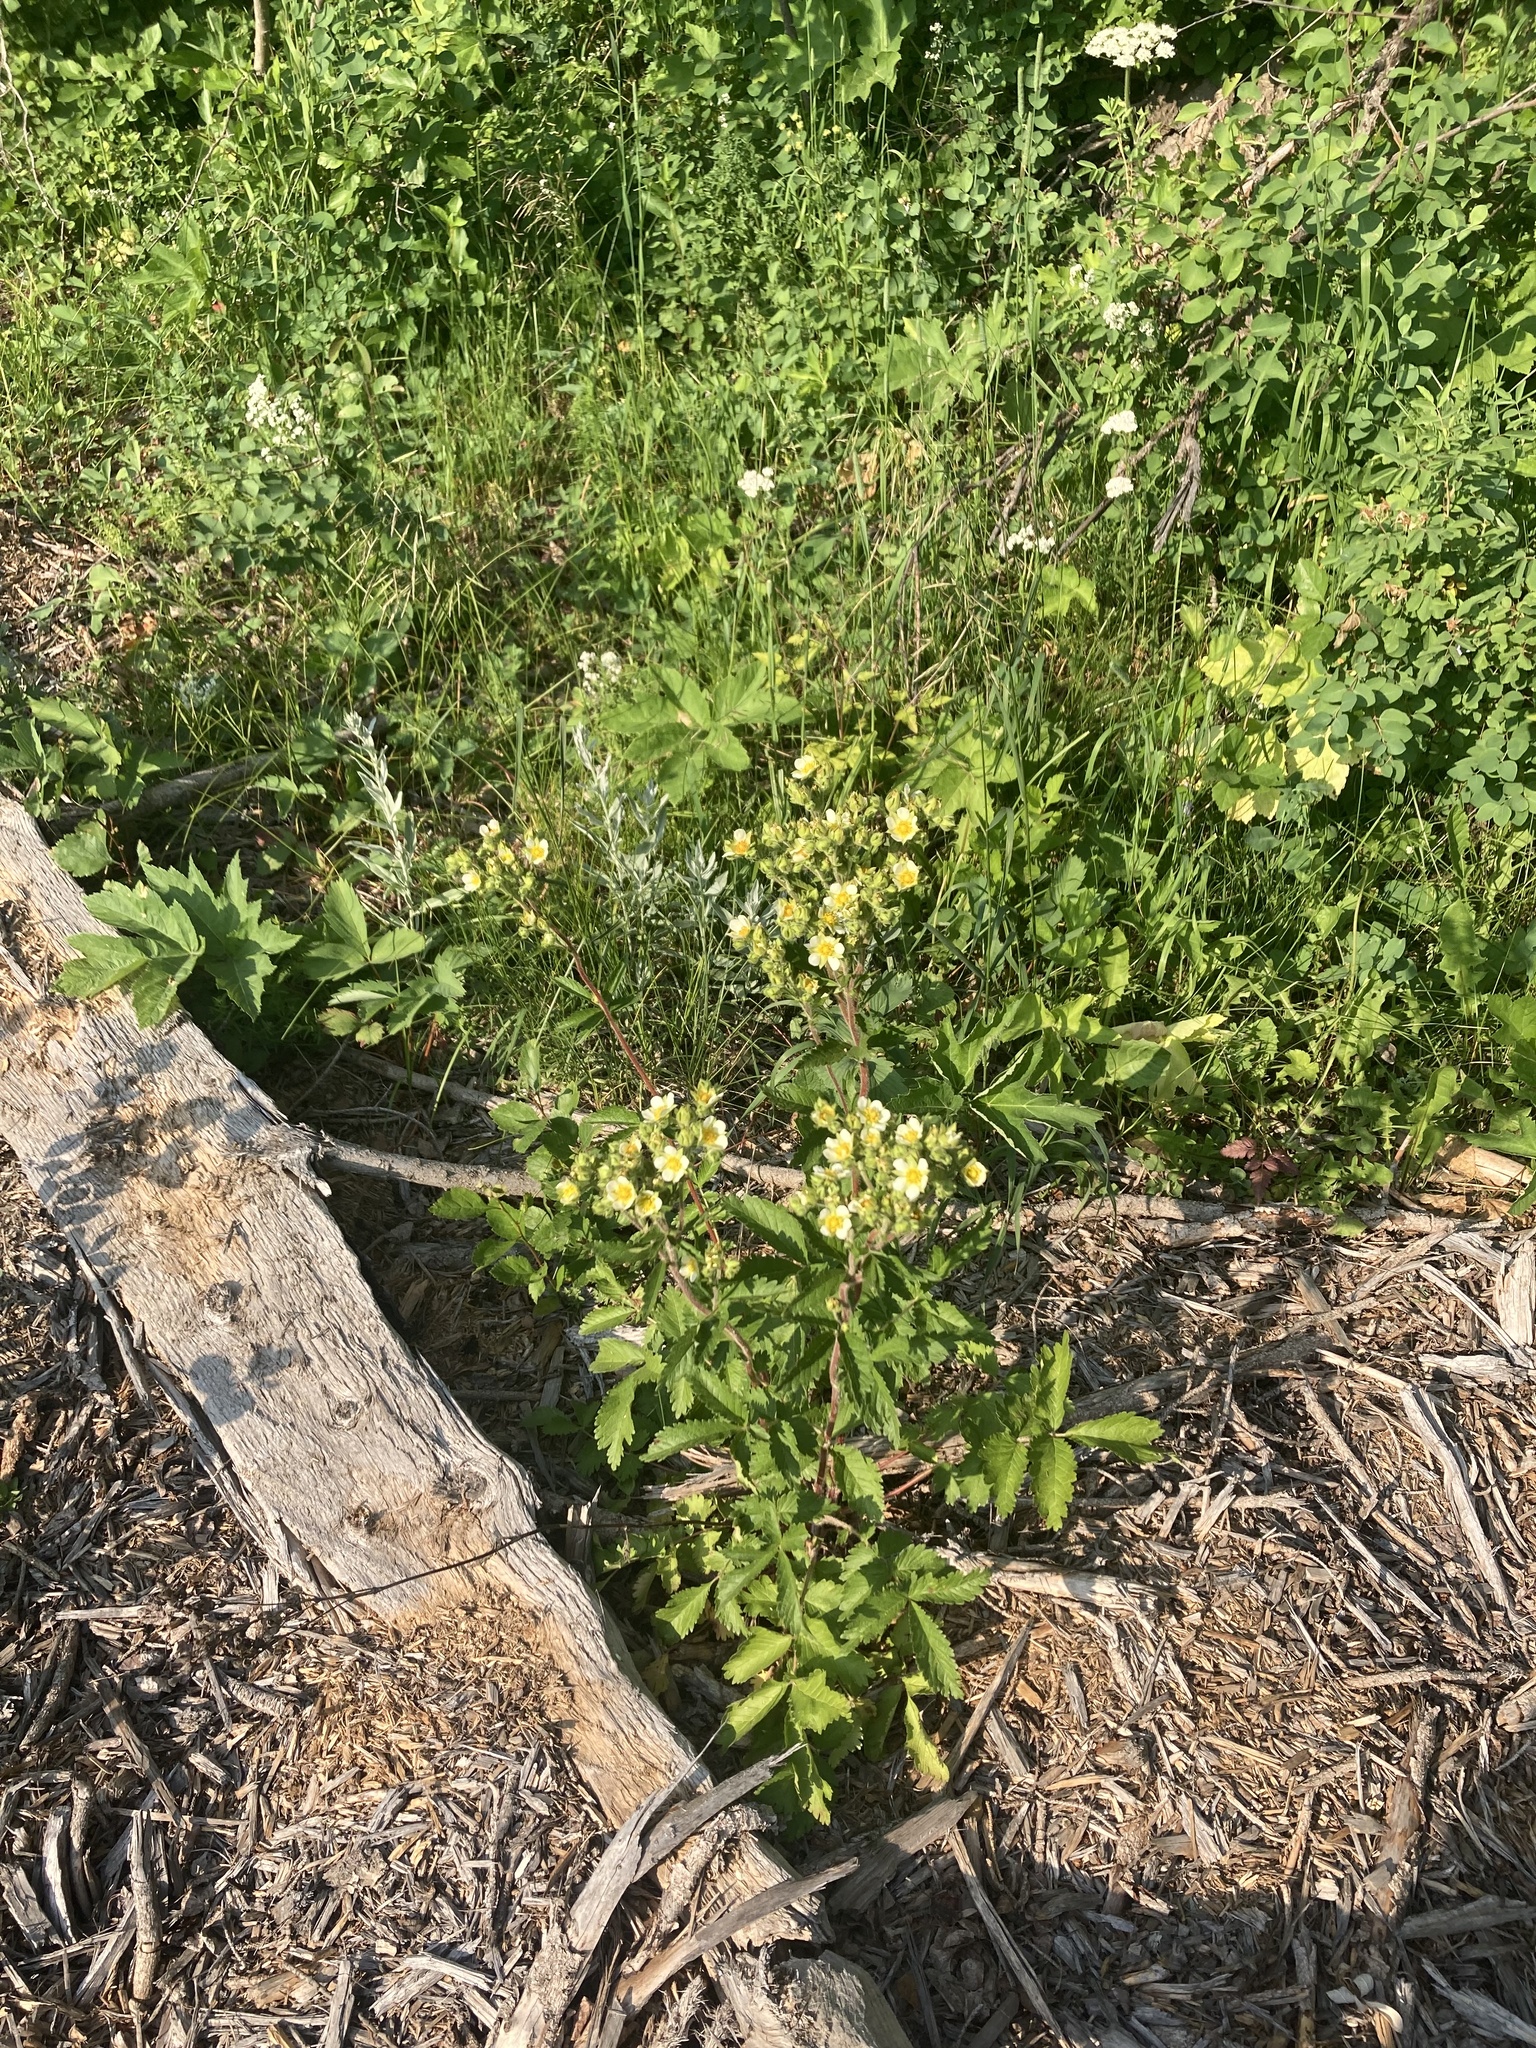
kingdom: Plantae
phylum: Tracheophyta
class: Magnoliopsida
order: Rosales
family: Rosaceae
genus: Drymocallis
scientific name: Drymocallis arguta
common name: Tall cinquefoil
